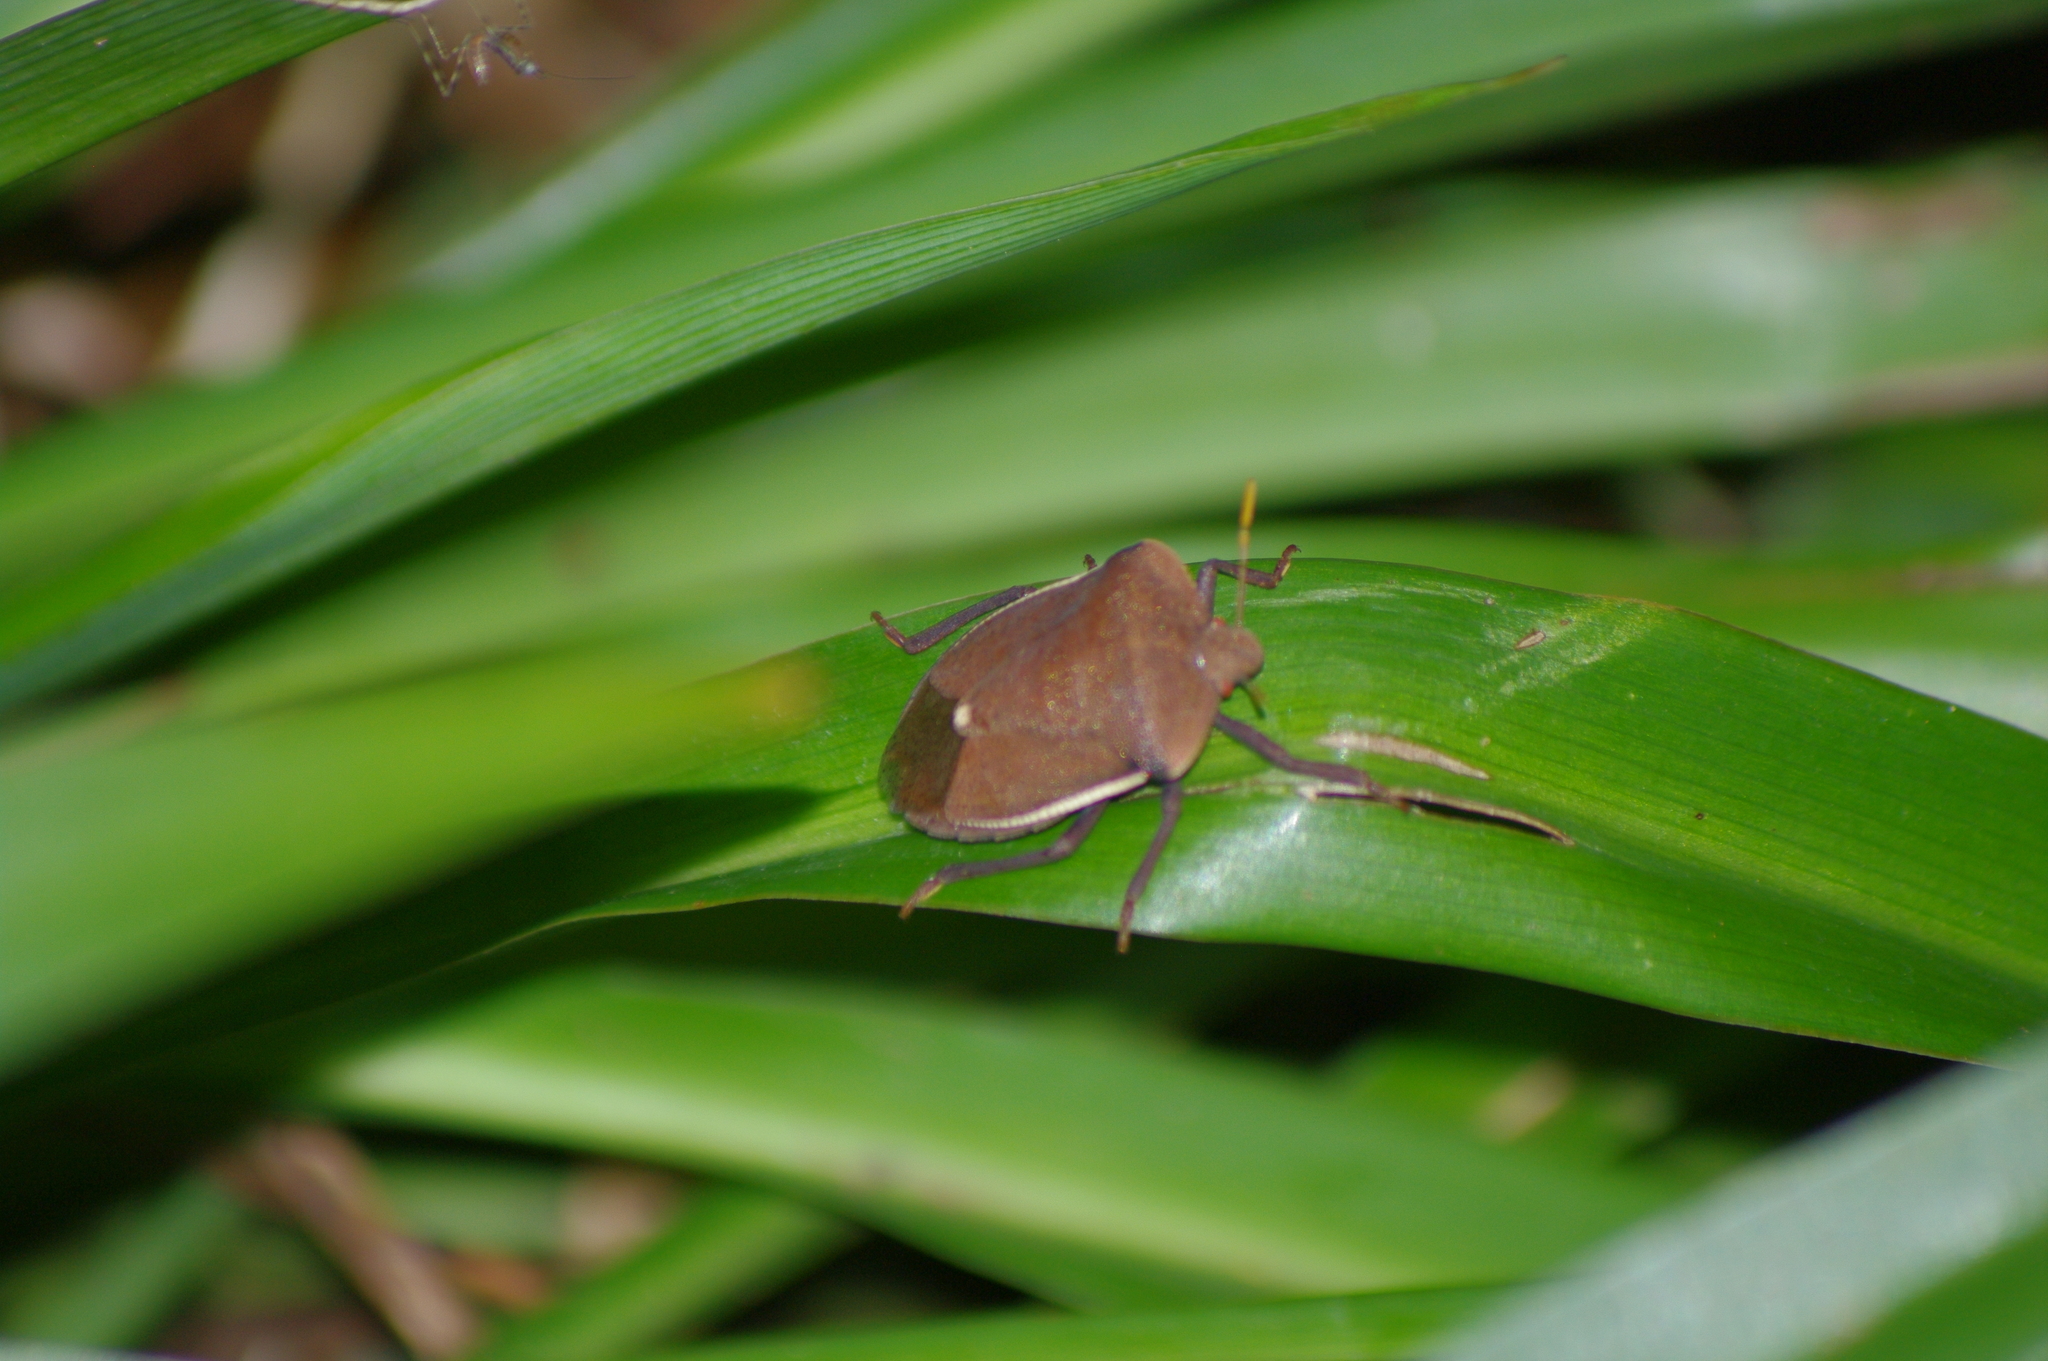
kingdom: Animalia
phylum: Arthropoda
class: Insecta
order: Hemiptera
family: Pentatomidae
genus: Basicryptus
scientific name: Basicryptus costalis
